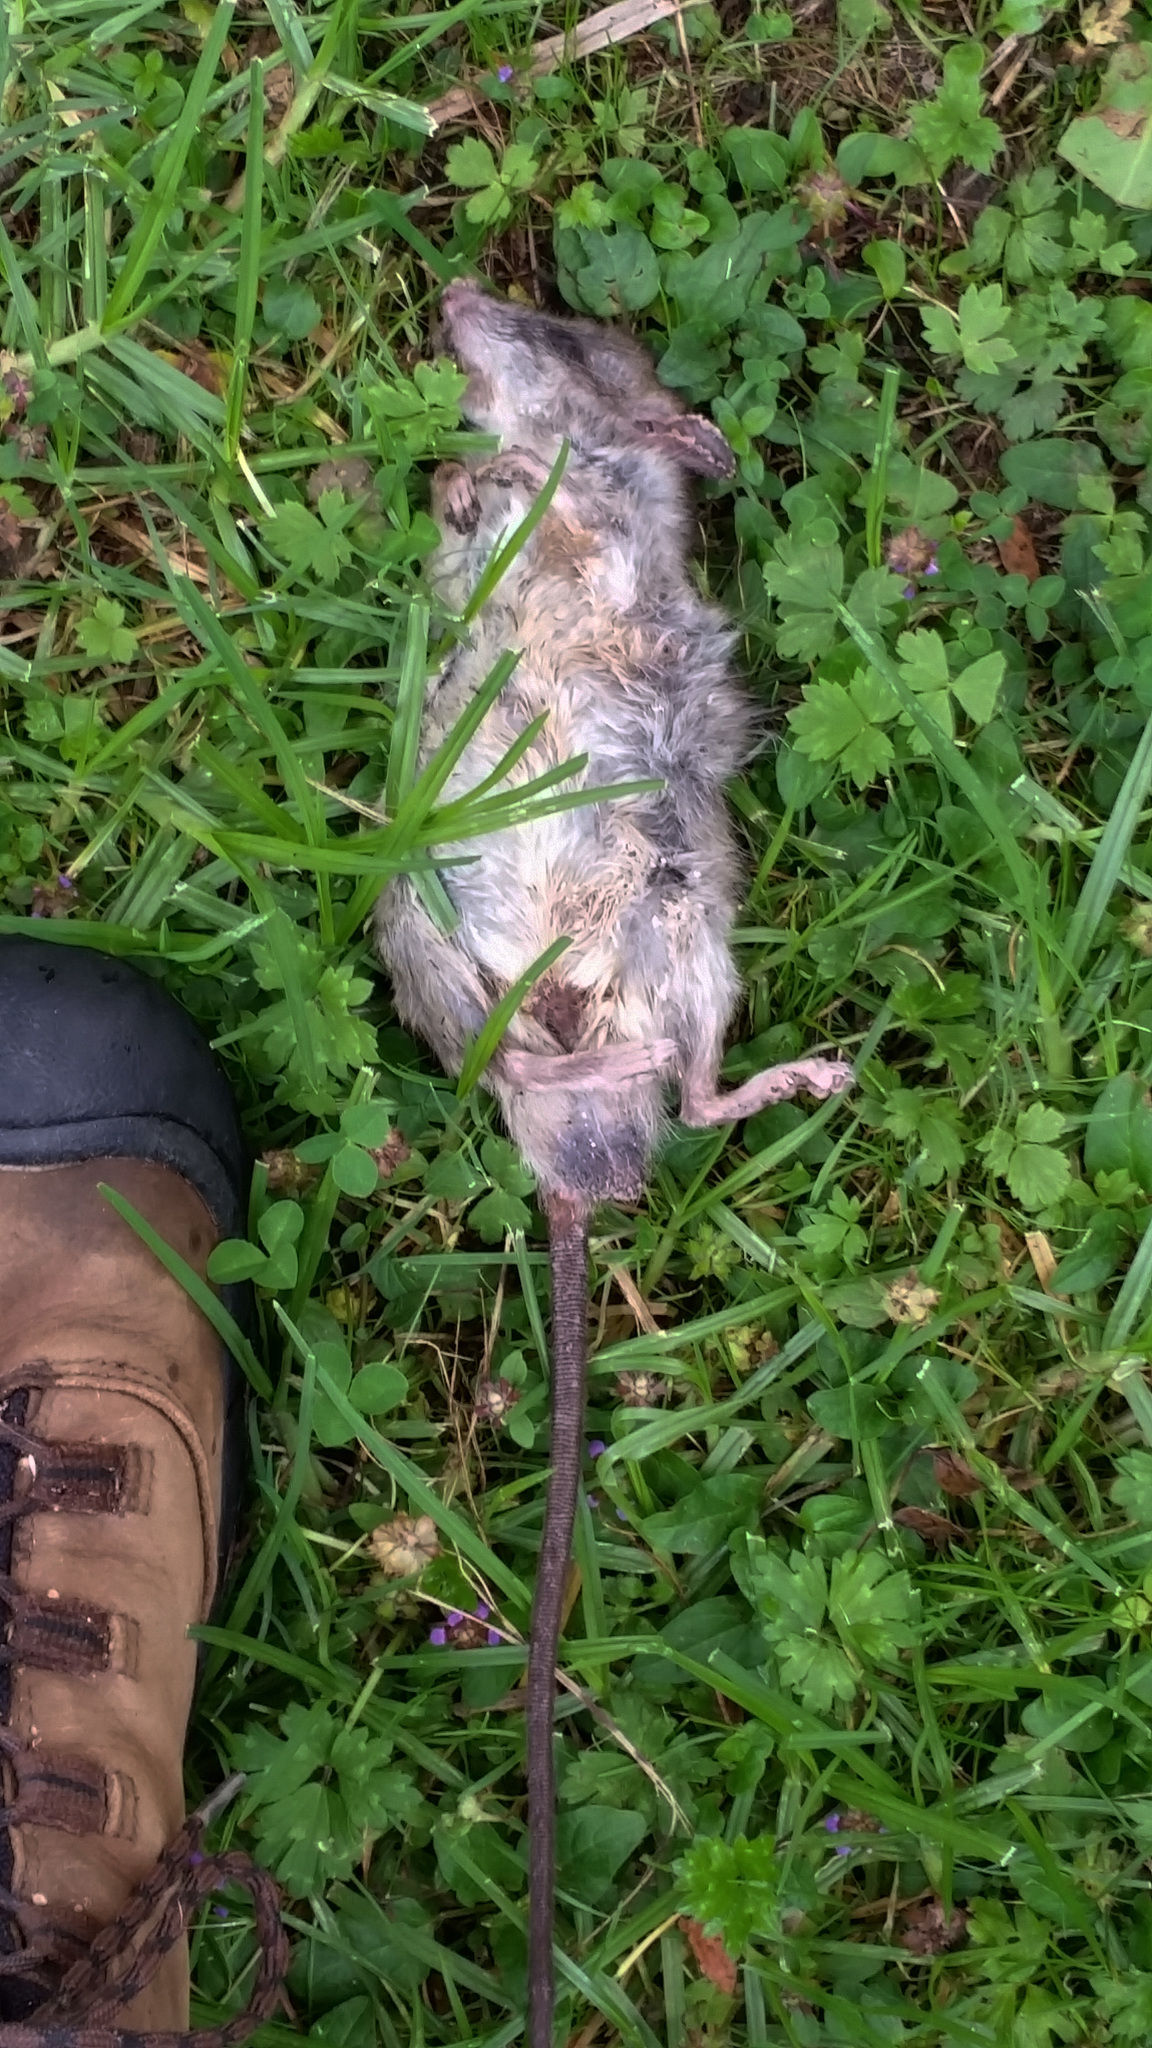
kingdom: Animalia
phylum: Chordata
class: Mammalia
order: Rodentia
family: Muridae
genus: Rattus
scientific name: Rattus rattus
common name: Black rat
